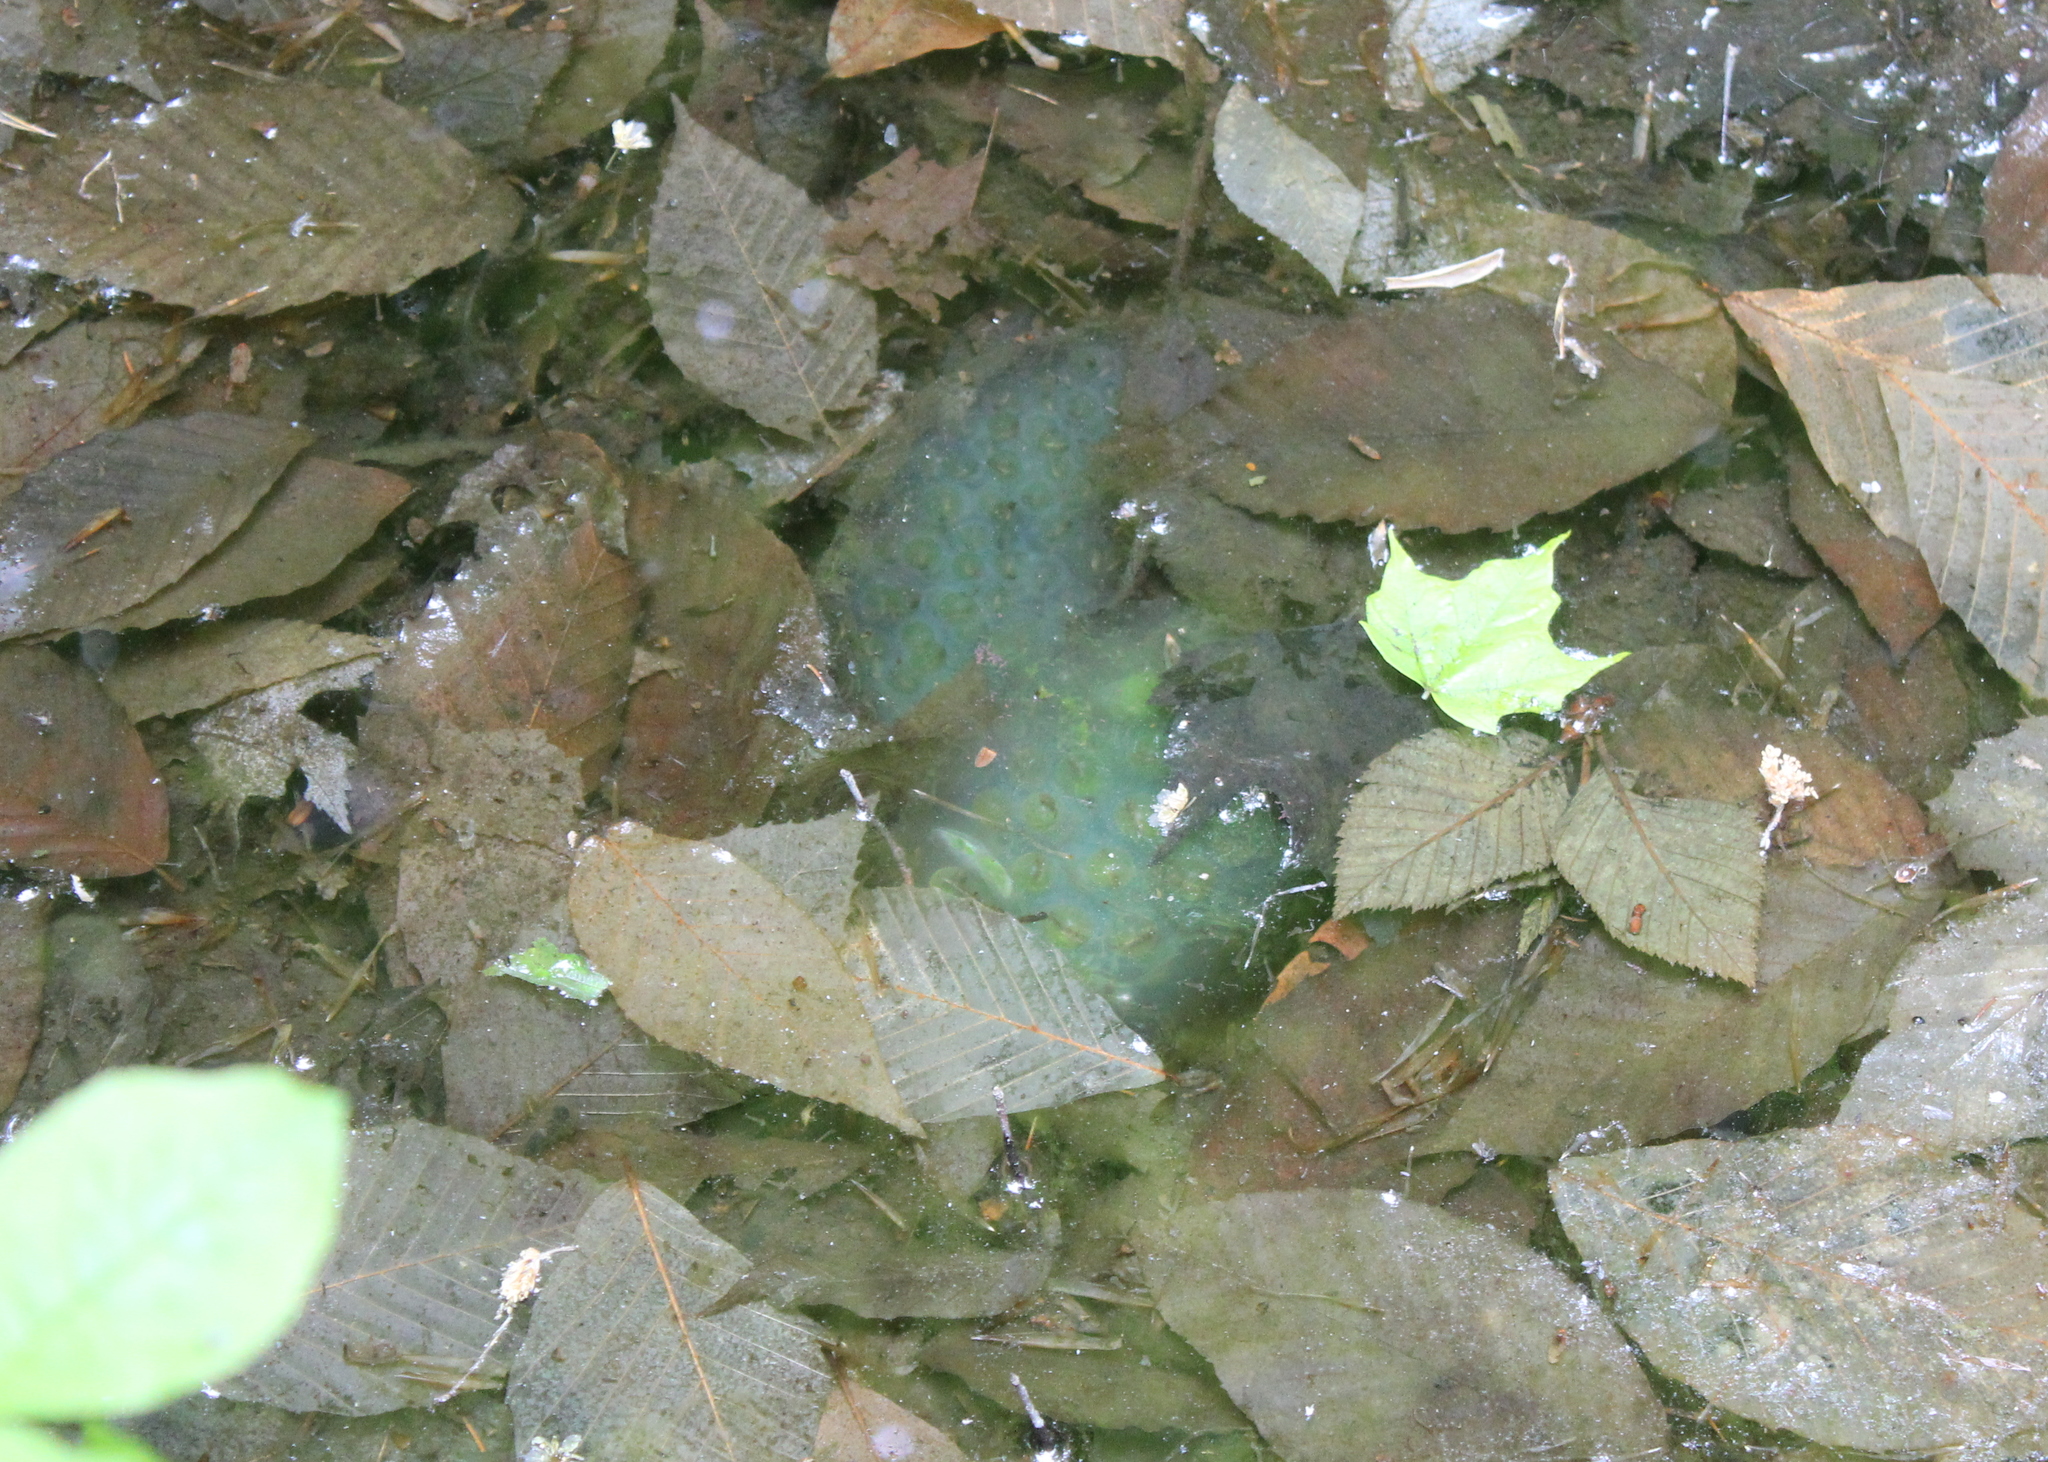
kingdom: Animalia
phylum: Chordata
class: Amphibia
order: Caudata
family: Ambystomatidae
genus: Ambystoma
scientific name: Ambystoma maculatum
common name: Spotted salamander
